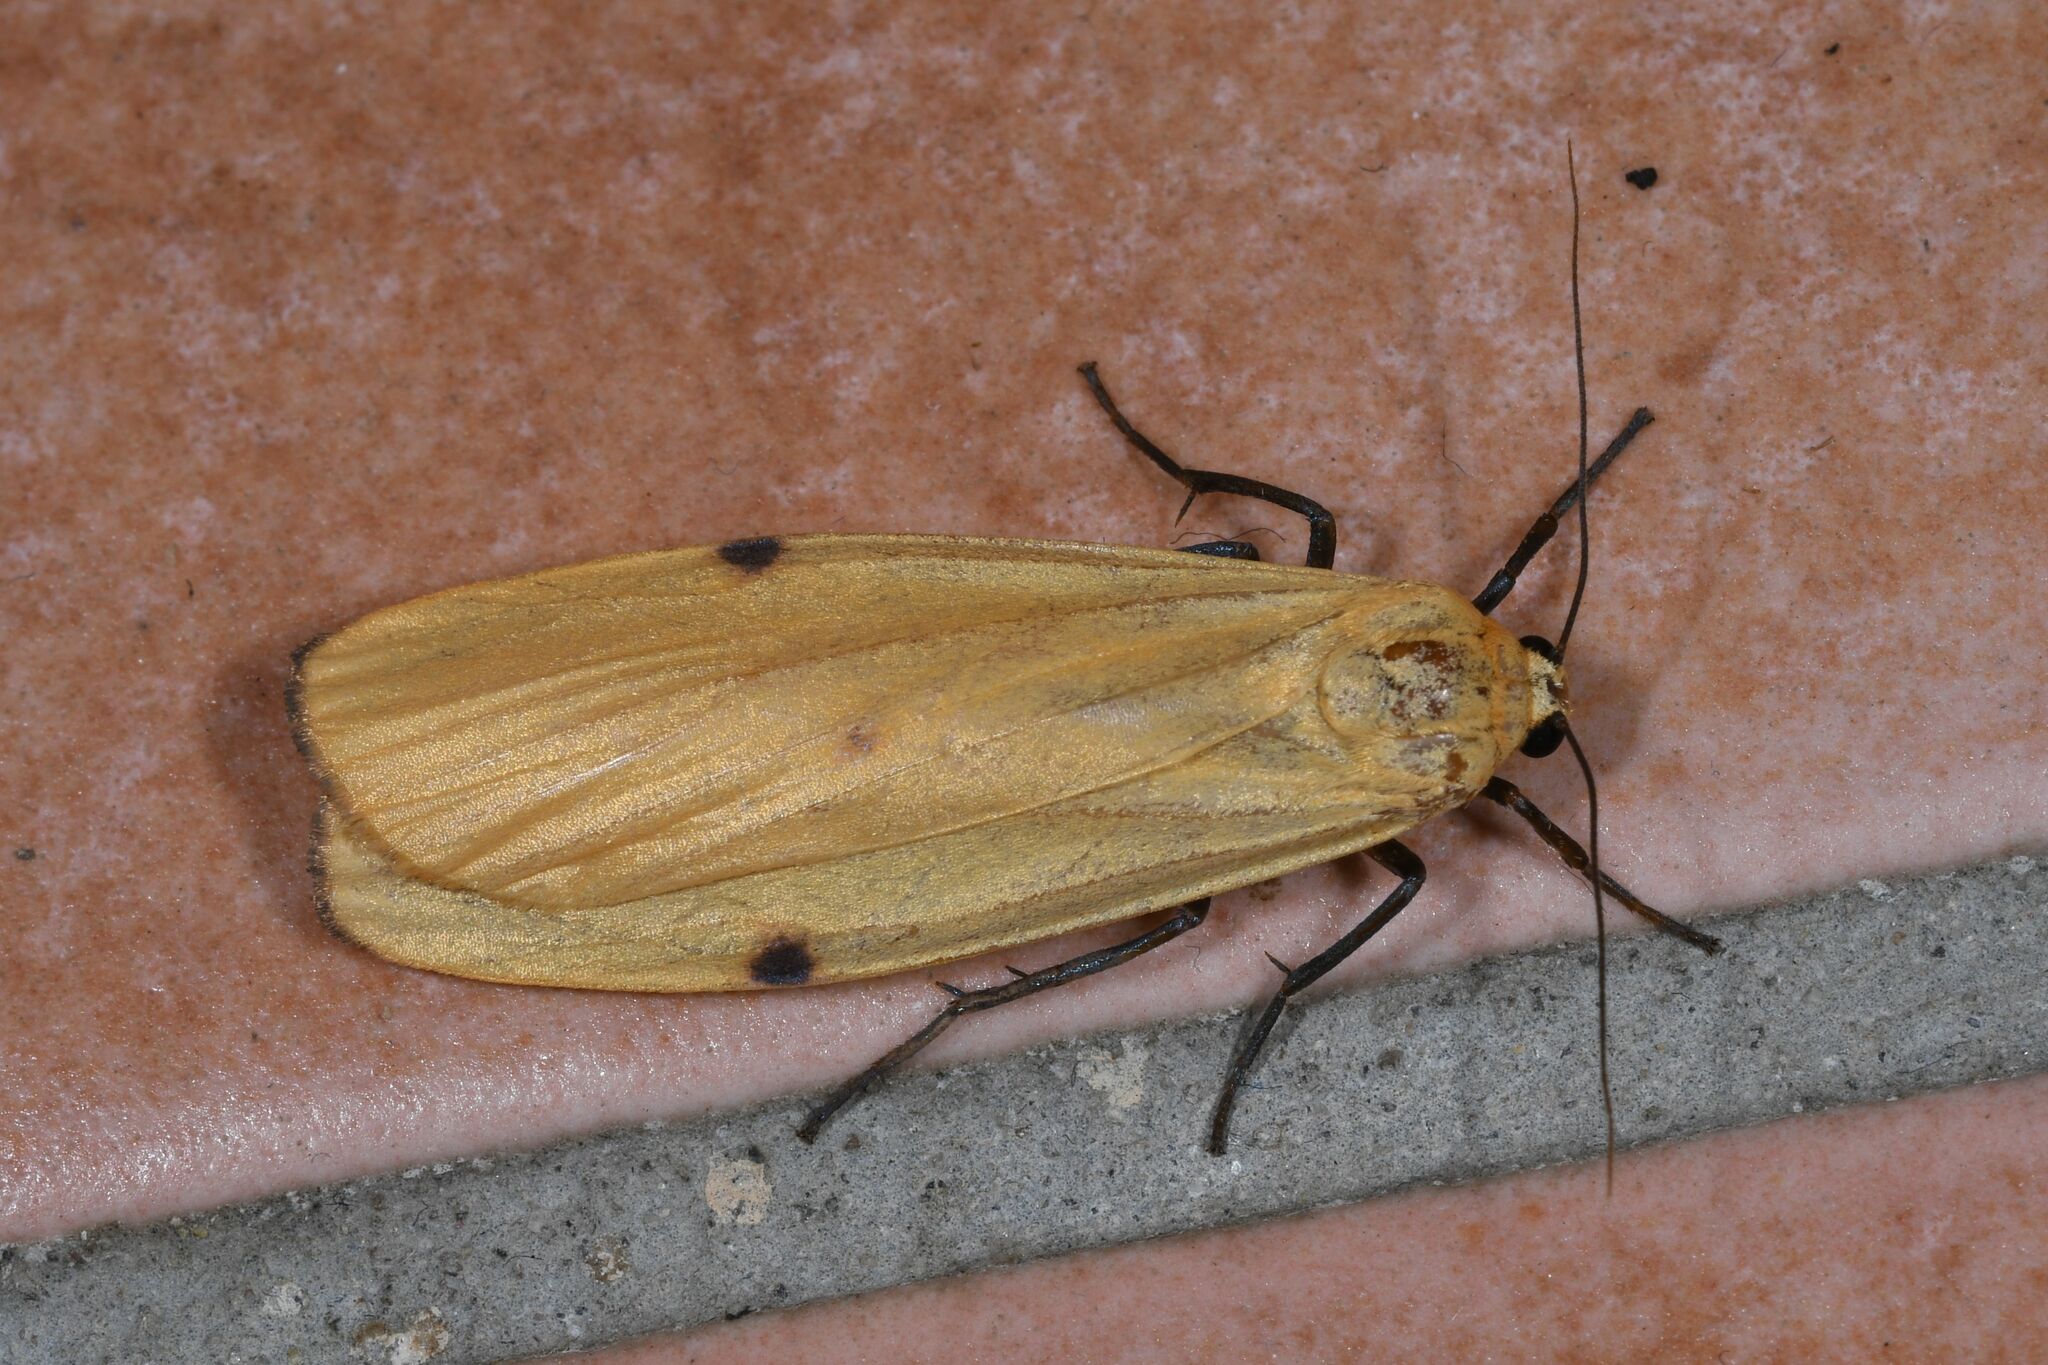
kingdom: Animalia
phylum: Arthropoda
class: Insecta
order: Lepidoptera
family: Erebidae
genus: Lithosia
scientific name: Lithosia quadra
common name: Four-spotted footman
